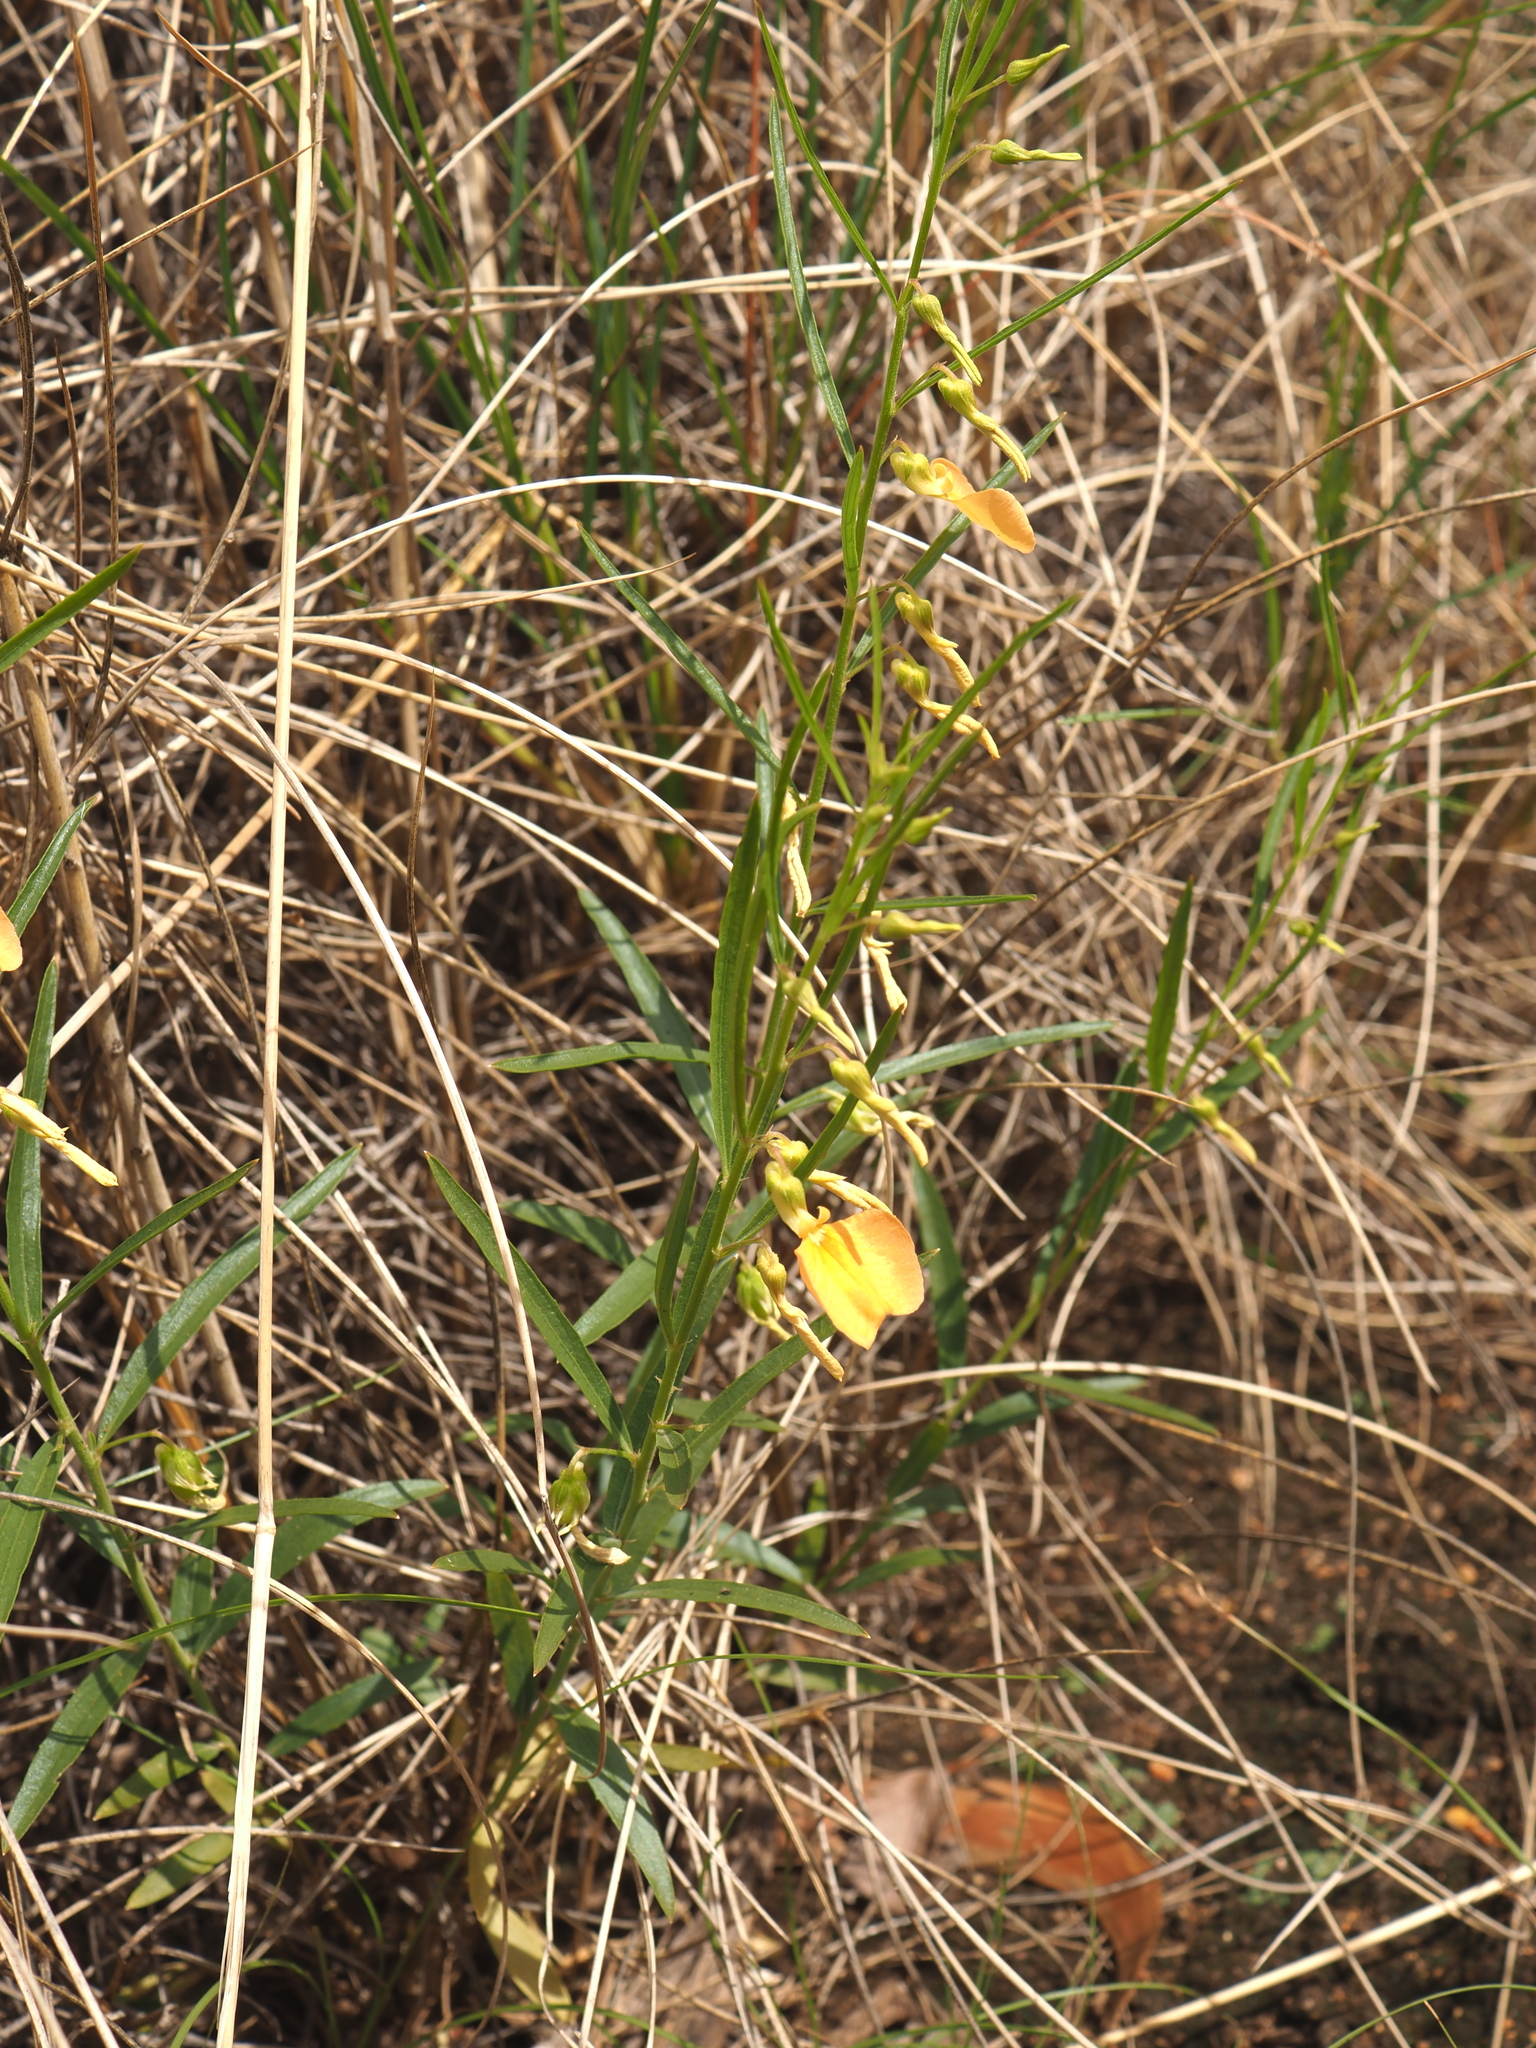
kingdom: Plantae
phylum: Tracheophyta
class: Magnoliopsida
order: Malpighiales
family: Violaceae
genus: Pigea
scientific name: Pigea aurantiaca
